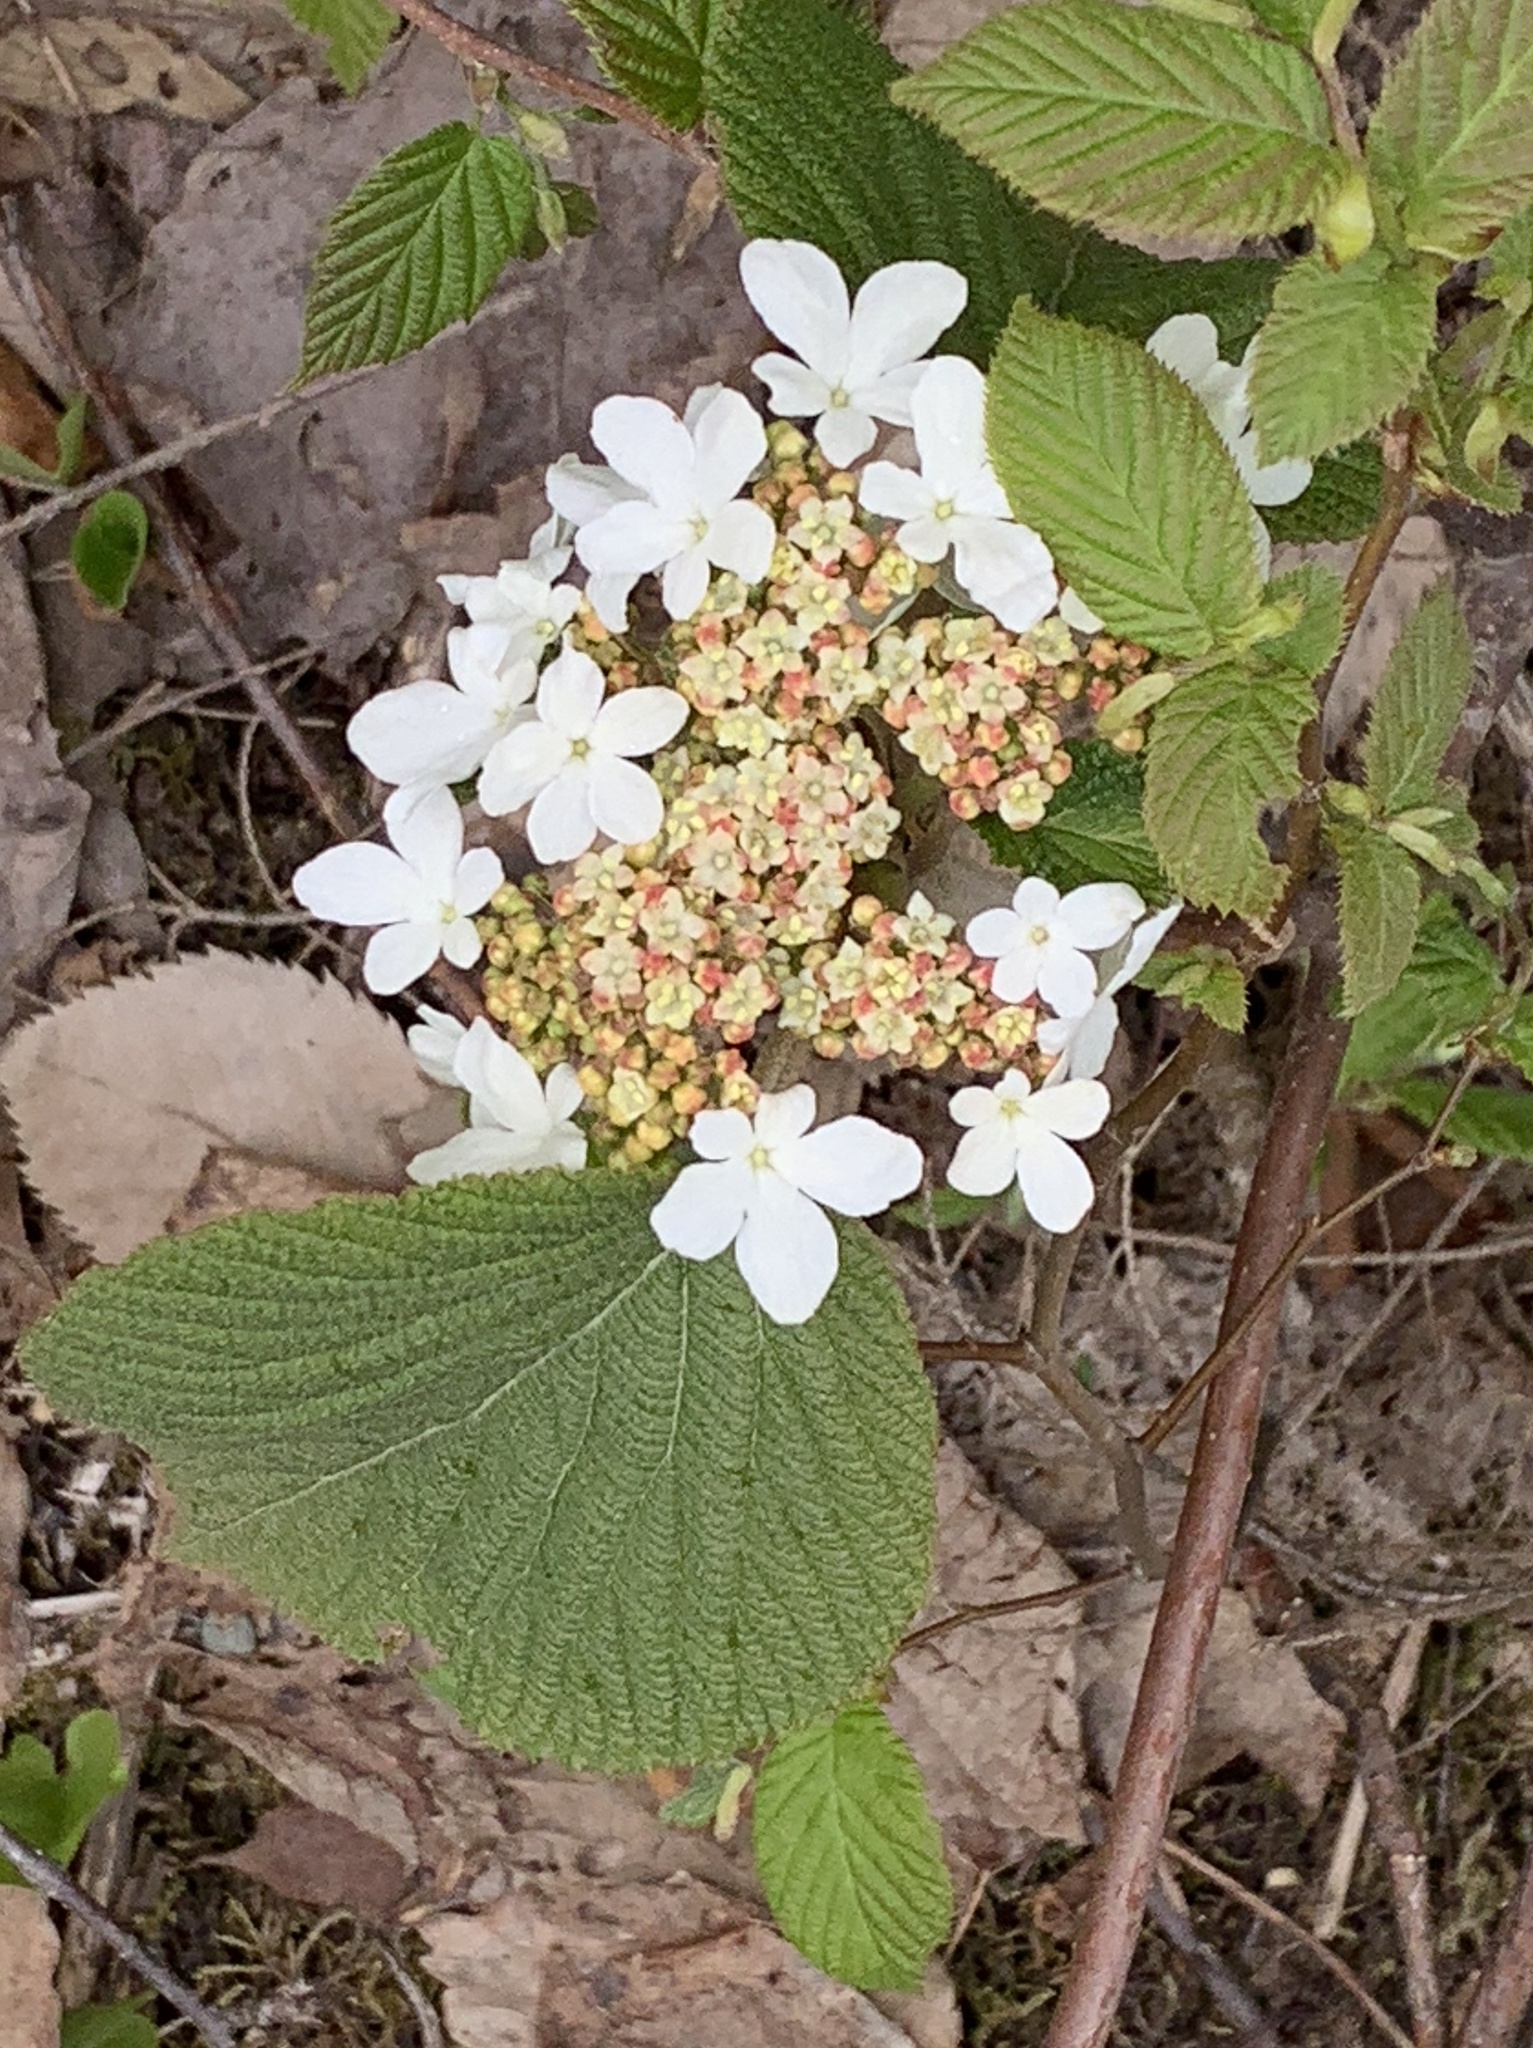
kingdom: Plantae
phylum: Tracheophyta
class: Magnoliopsida
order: Dipsacales
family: Viburnaceae
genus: Viburnum
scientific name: Viburnum lantanoides
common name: Hobblebush
